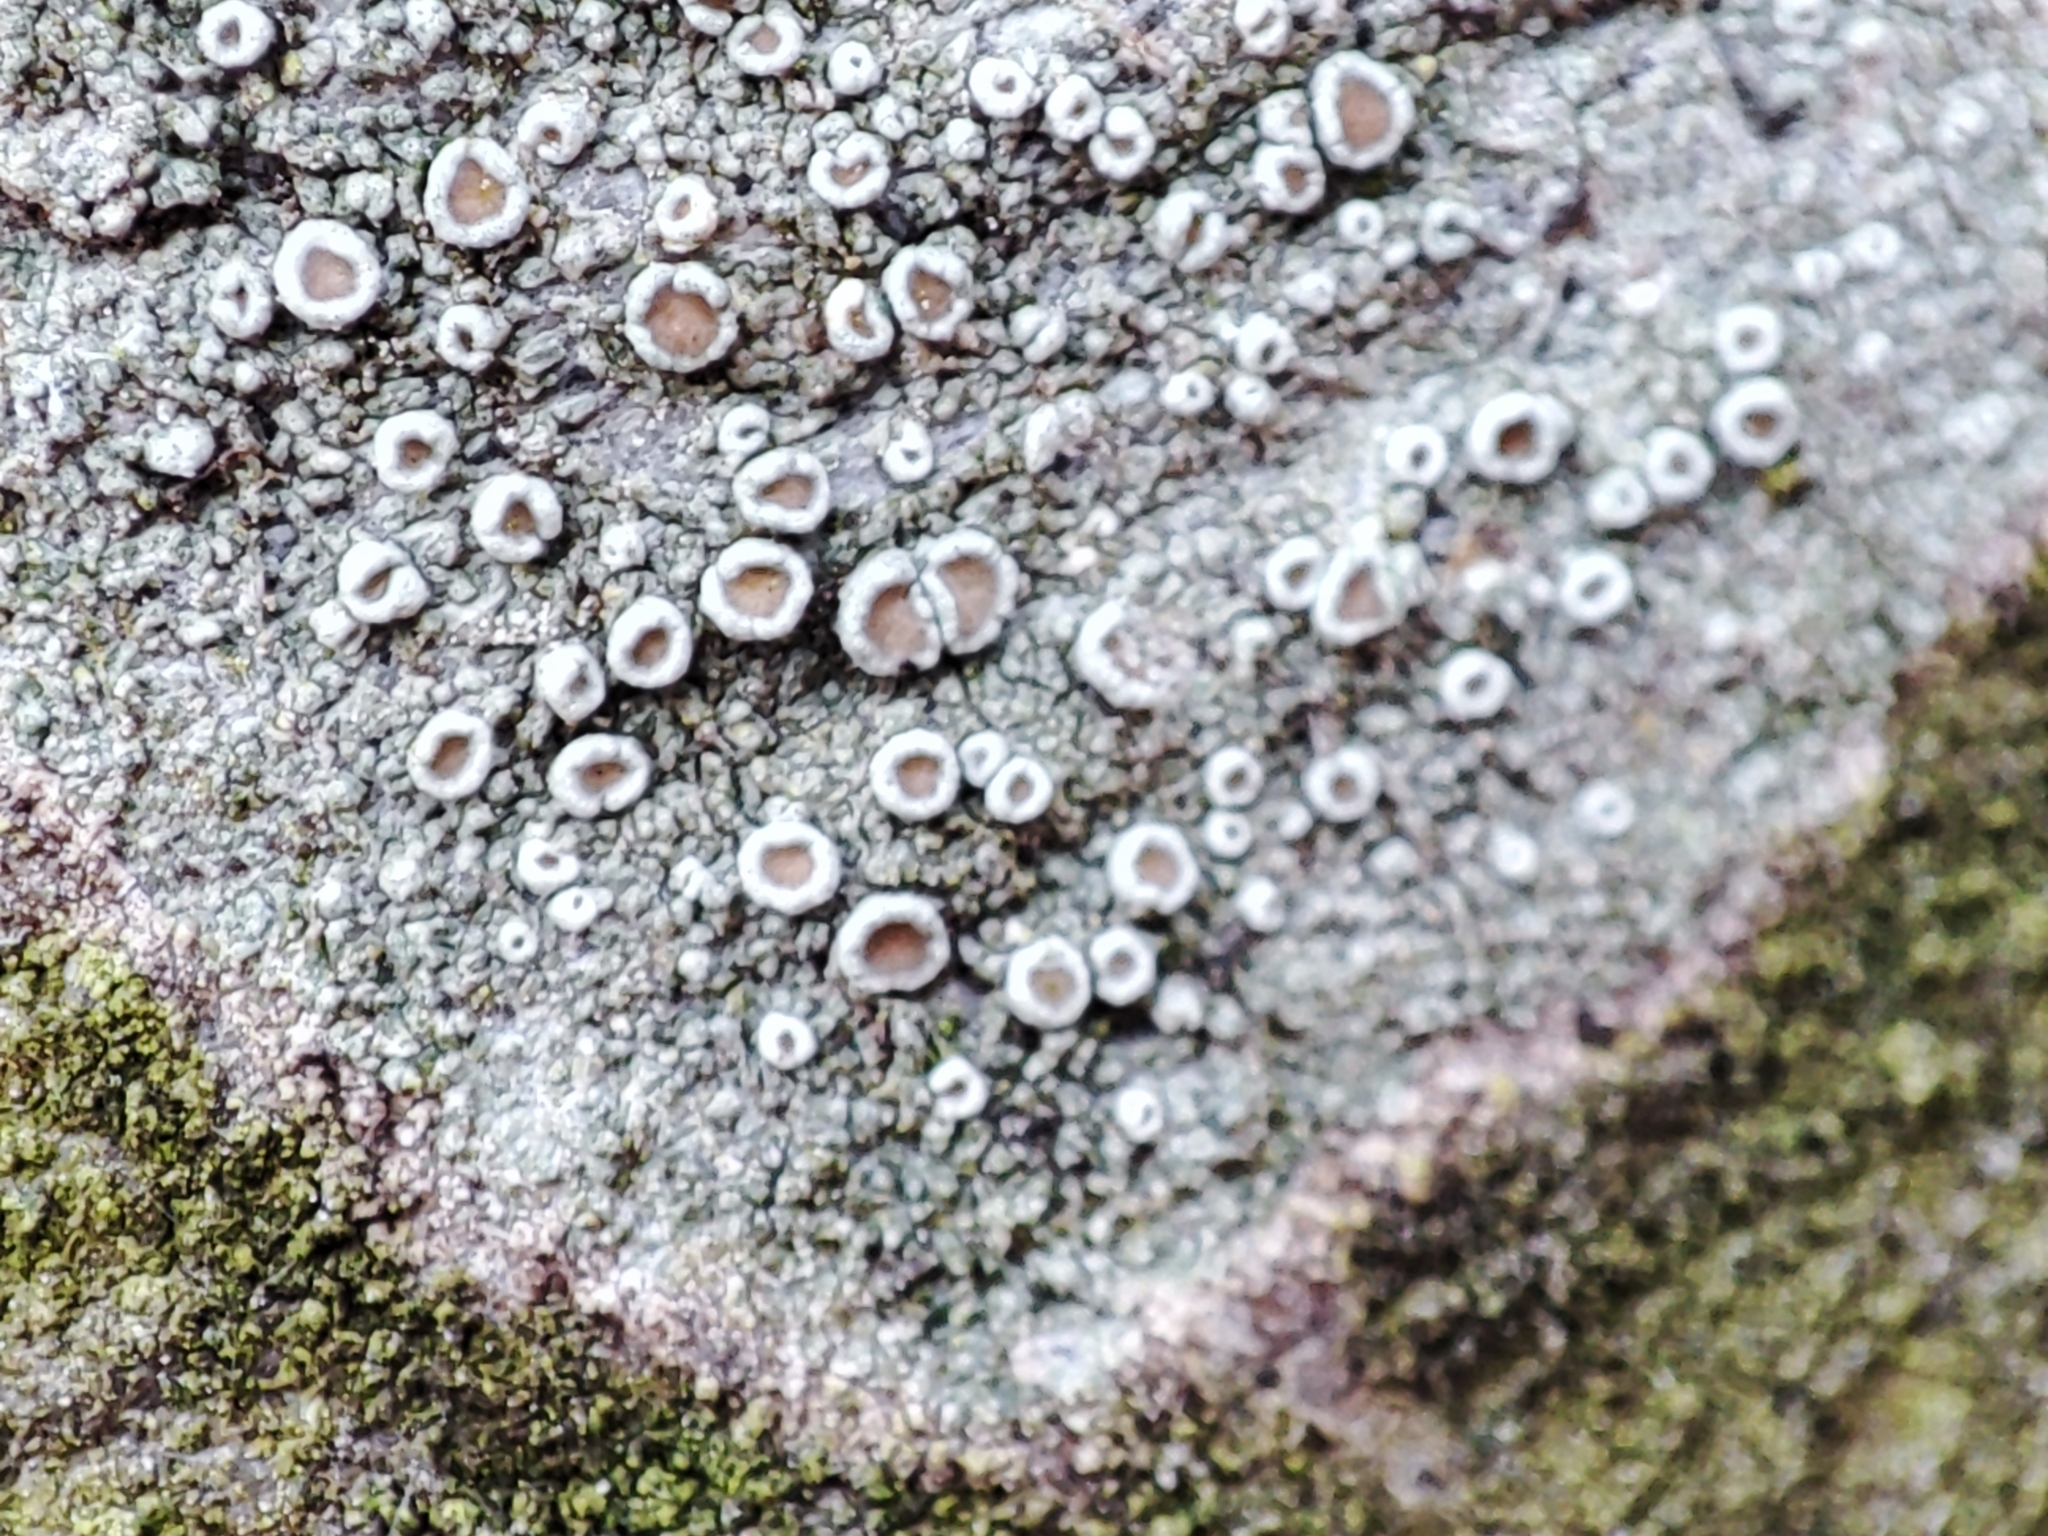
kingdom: Fungi
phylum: Ascomycota
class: Lecanoromycetes
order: Lecanorales
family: Lecanoraceae
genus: Lecanora
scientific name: Lecanora argentata
